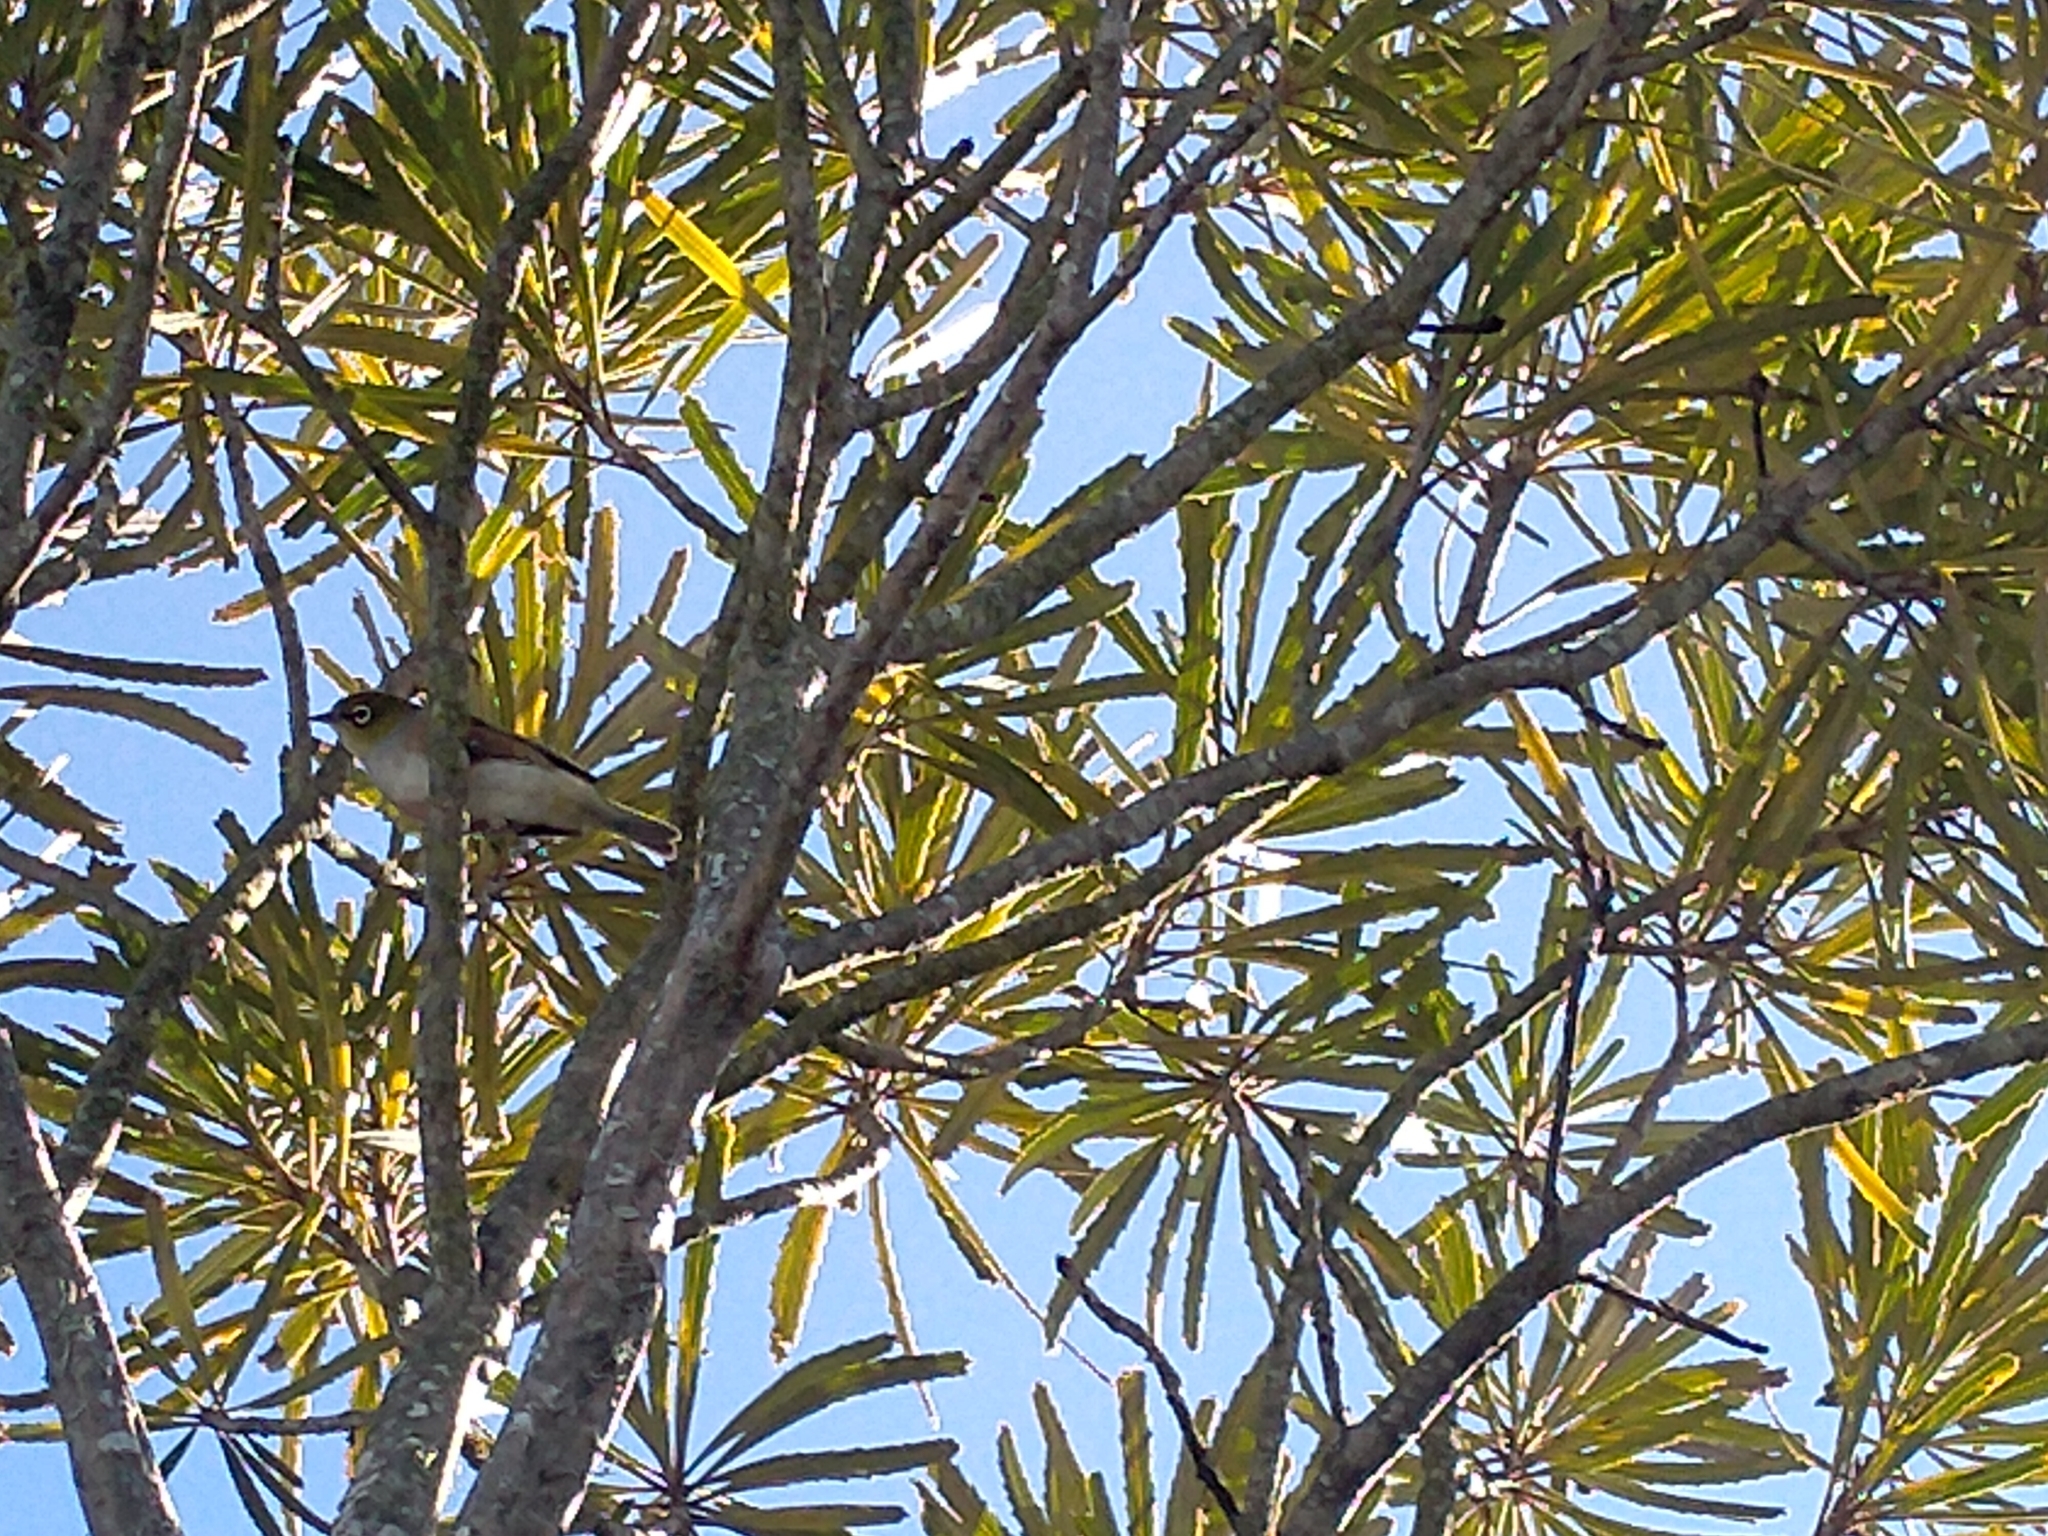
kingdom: Animalia
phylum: Chordata
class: Aves
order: Passeriformes
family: Zosteropidae
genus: Zosterops
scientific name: Zosterops lateralis
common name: Silvereye
